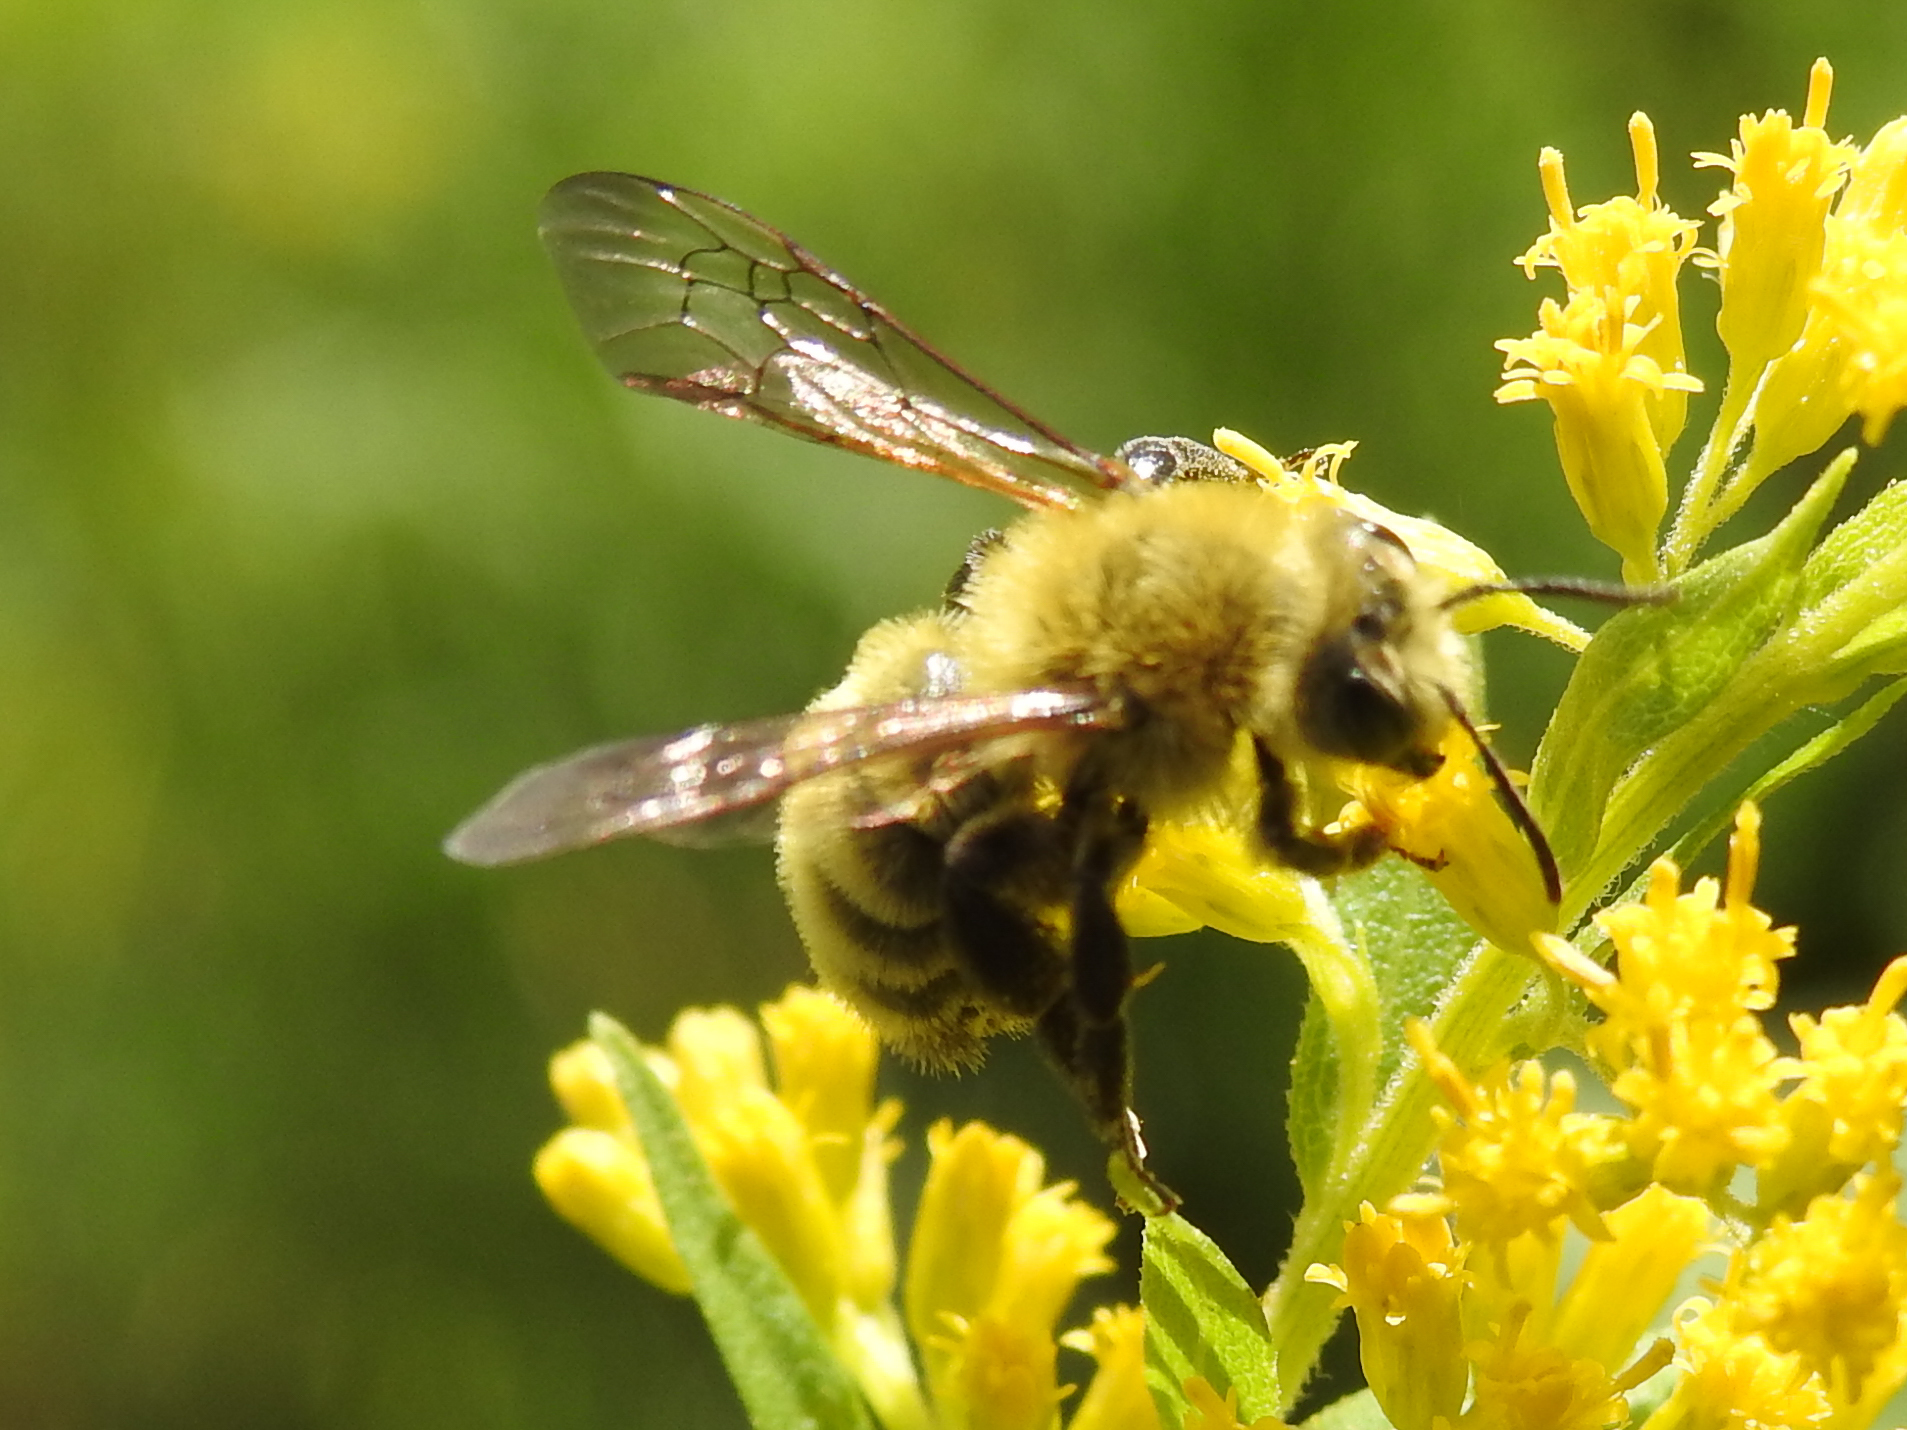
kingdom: Animalia
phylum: Arthropoda
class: Insecta
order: Hymenoptera
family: Andrenidae
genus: Andrena
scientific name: Andrena hirticincta
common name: Hairy-banded mining bee
